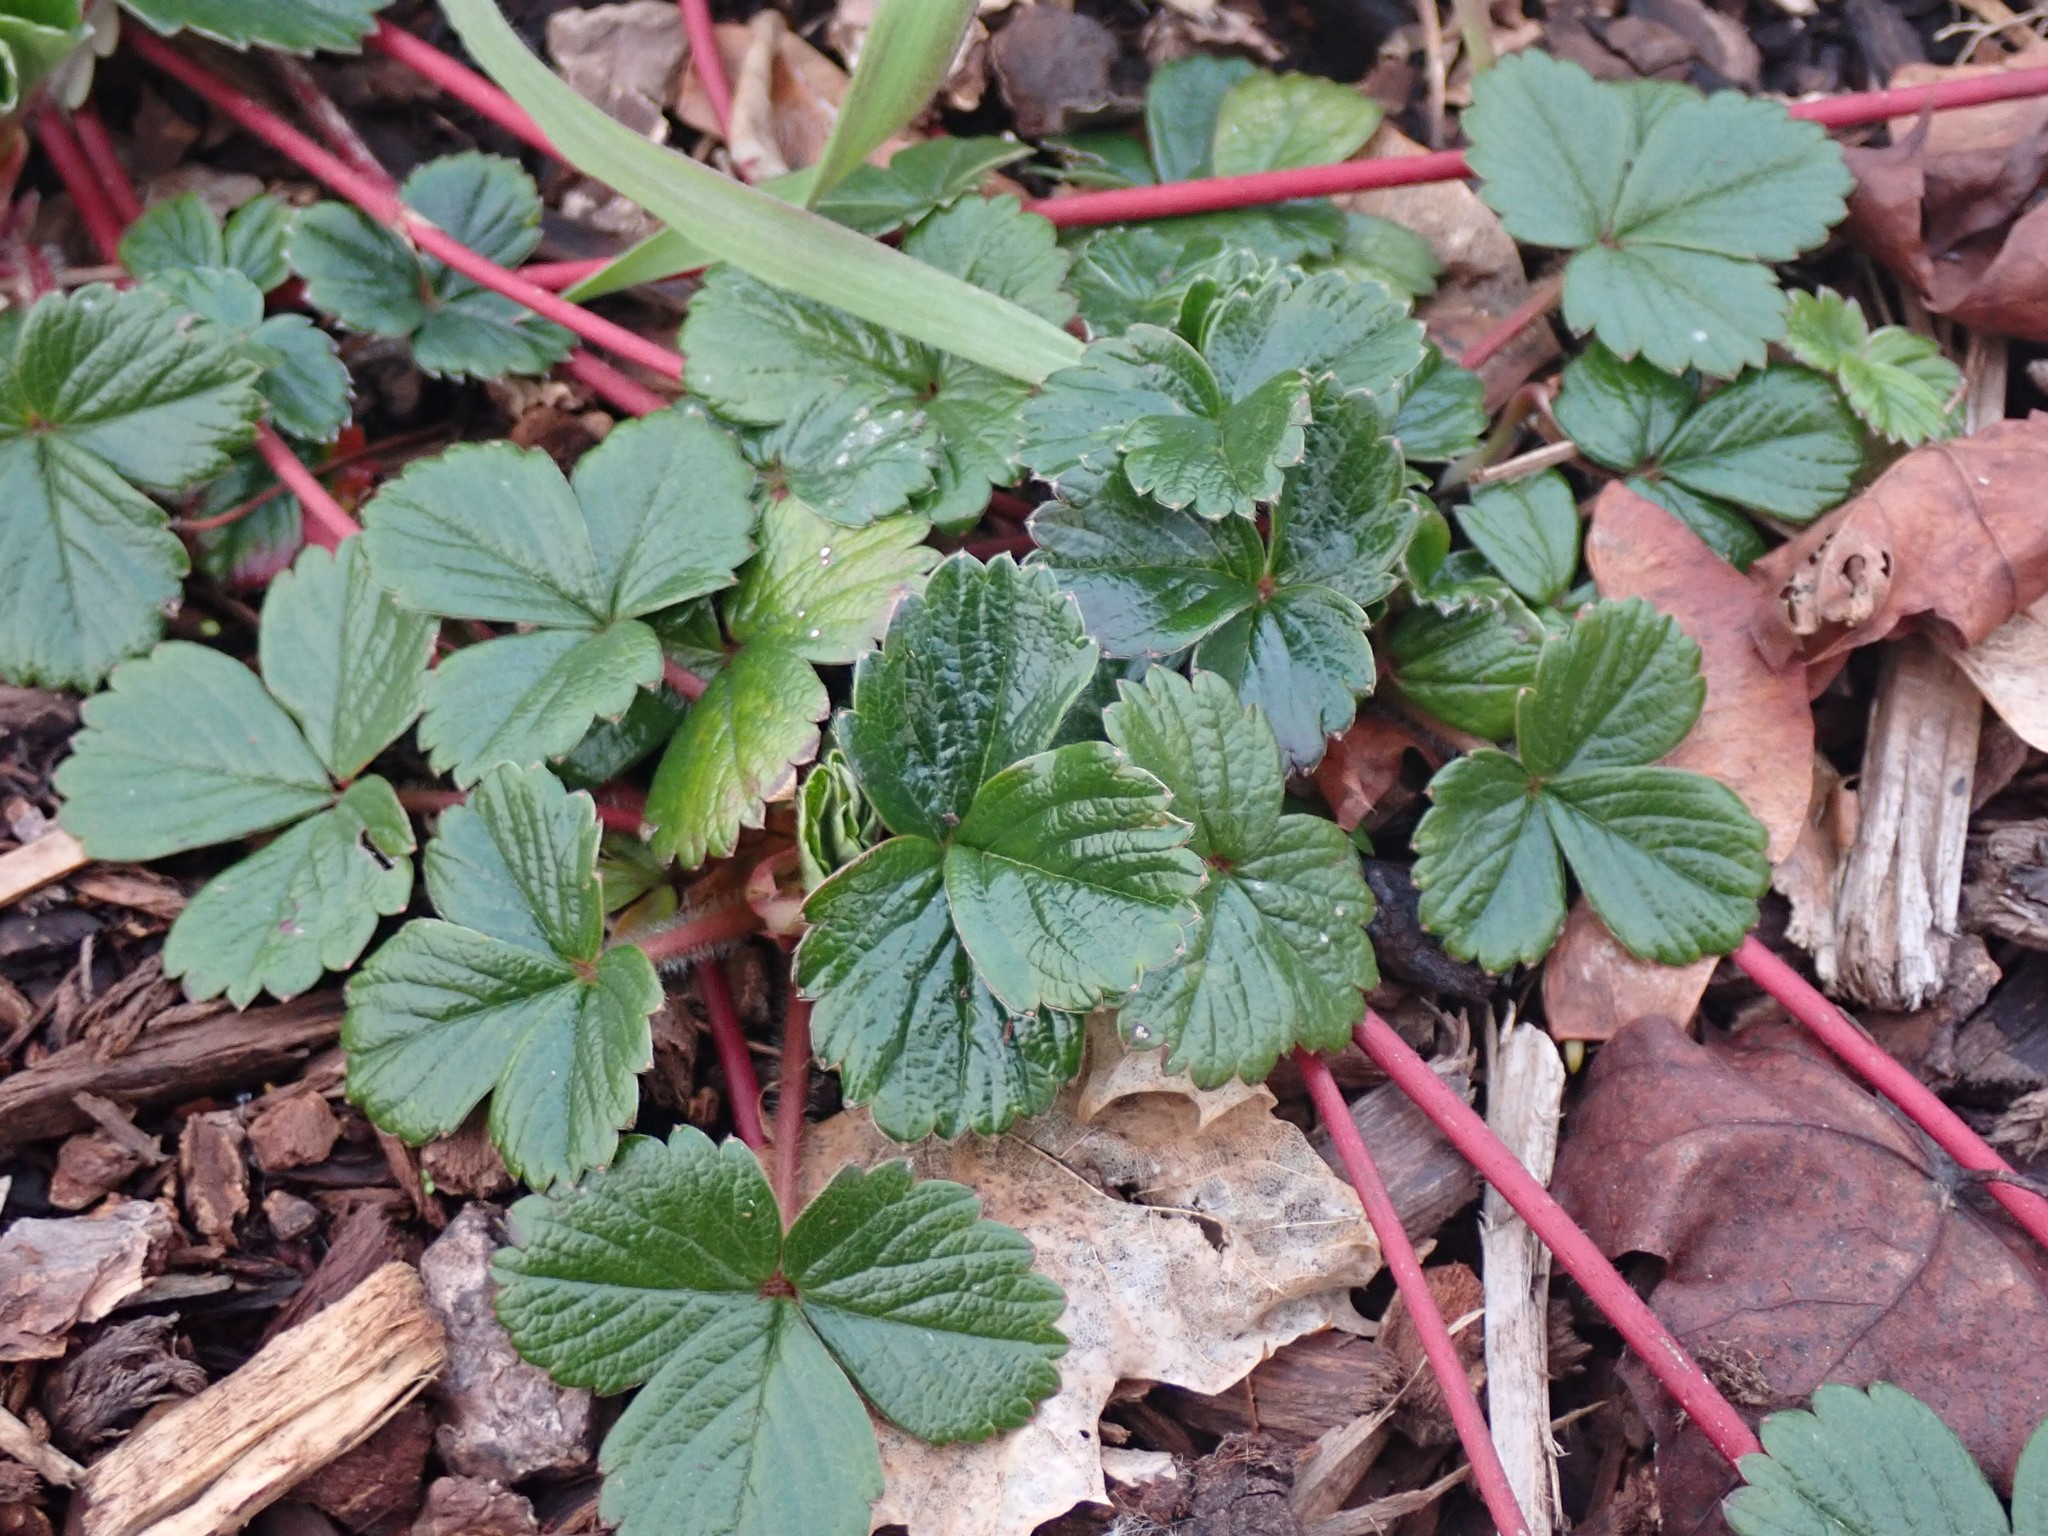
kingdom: Plantae
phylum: Tracheophyta
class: Magnoliopsida
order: Rosales
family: Rosaceae
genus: Fragaria
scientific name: Fragaria chiloensis
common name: Beach strawberry
